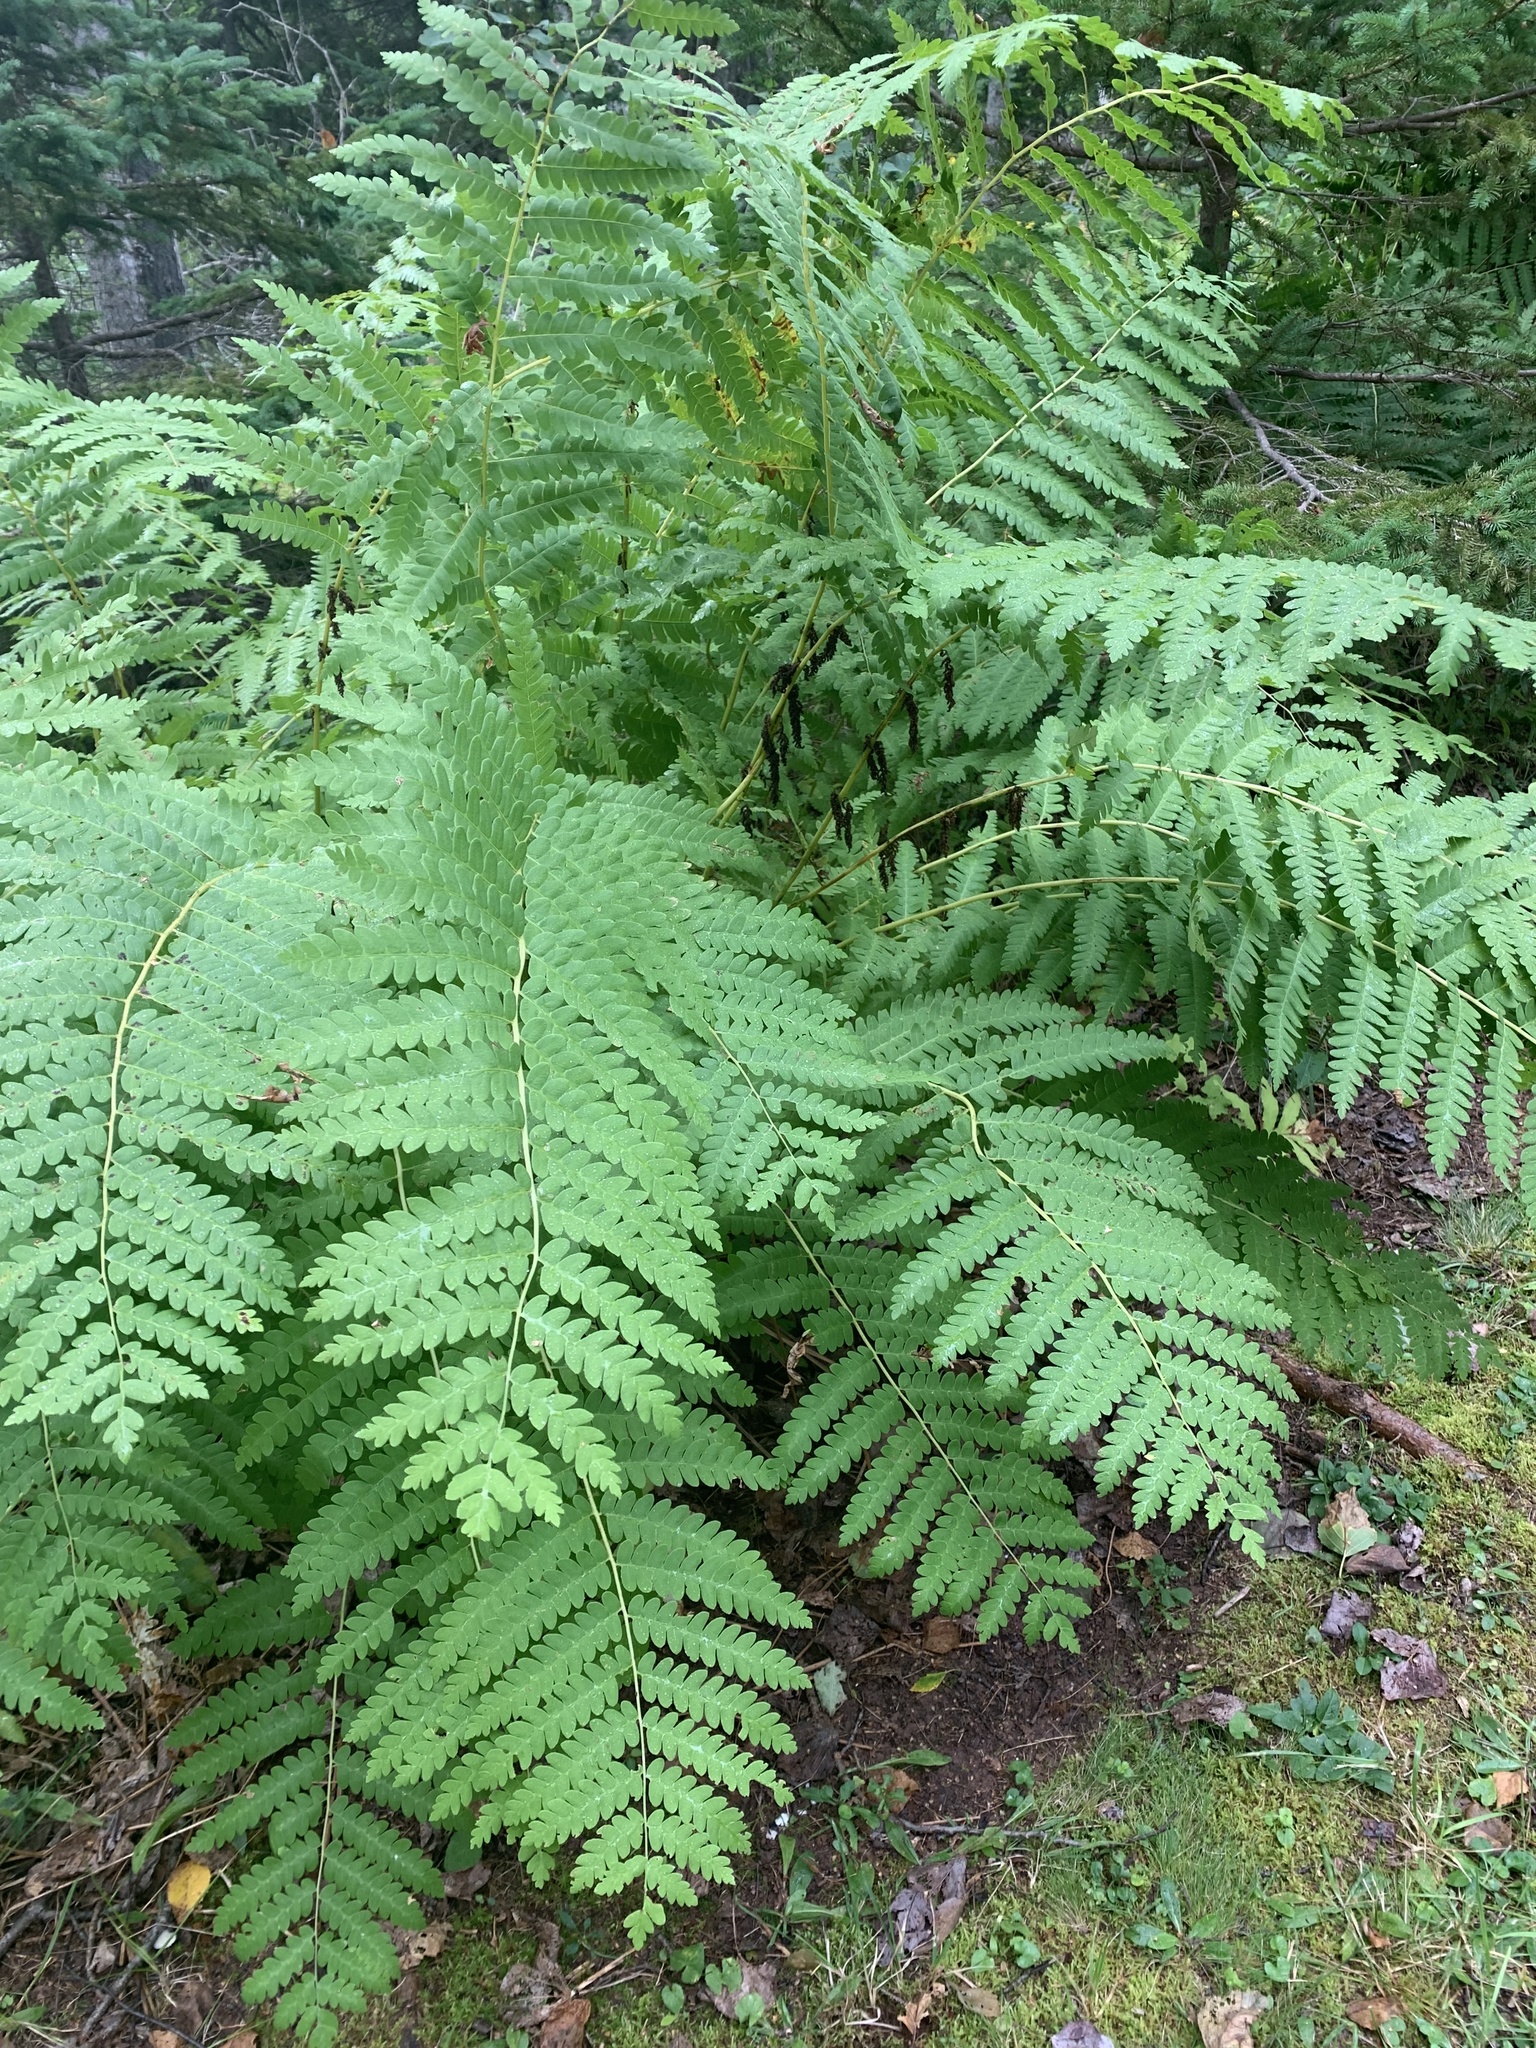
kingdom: Plantae
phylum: Tracheophyta
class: Polypodiopsida
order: Osmundales
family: Osmundaceae
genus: Claytosmunda
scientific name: Claytosmunda claytoniana
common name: Clayton's fern
